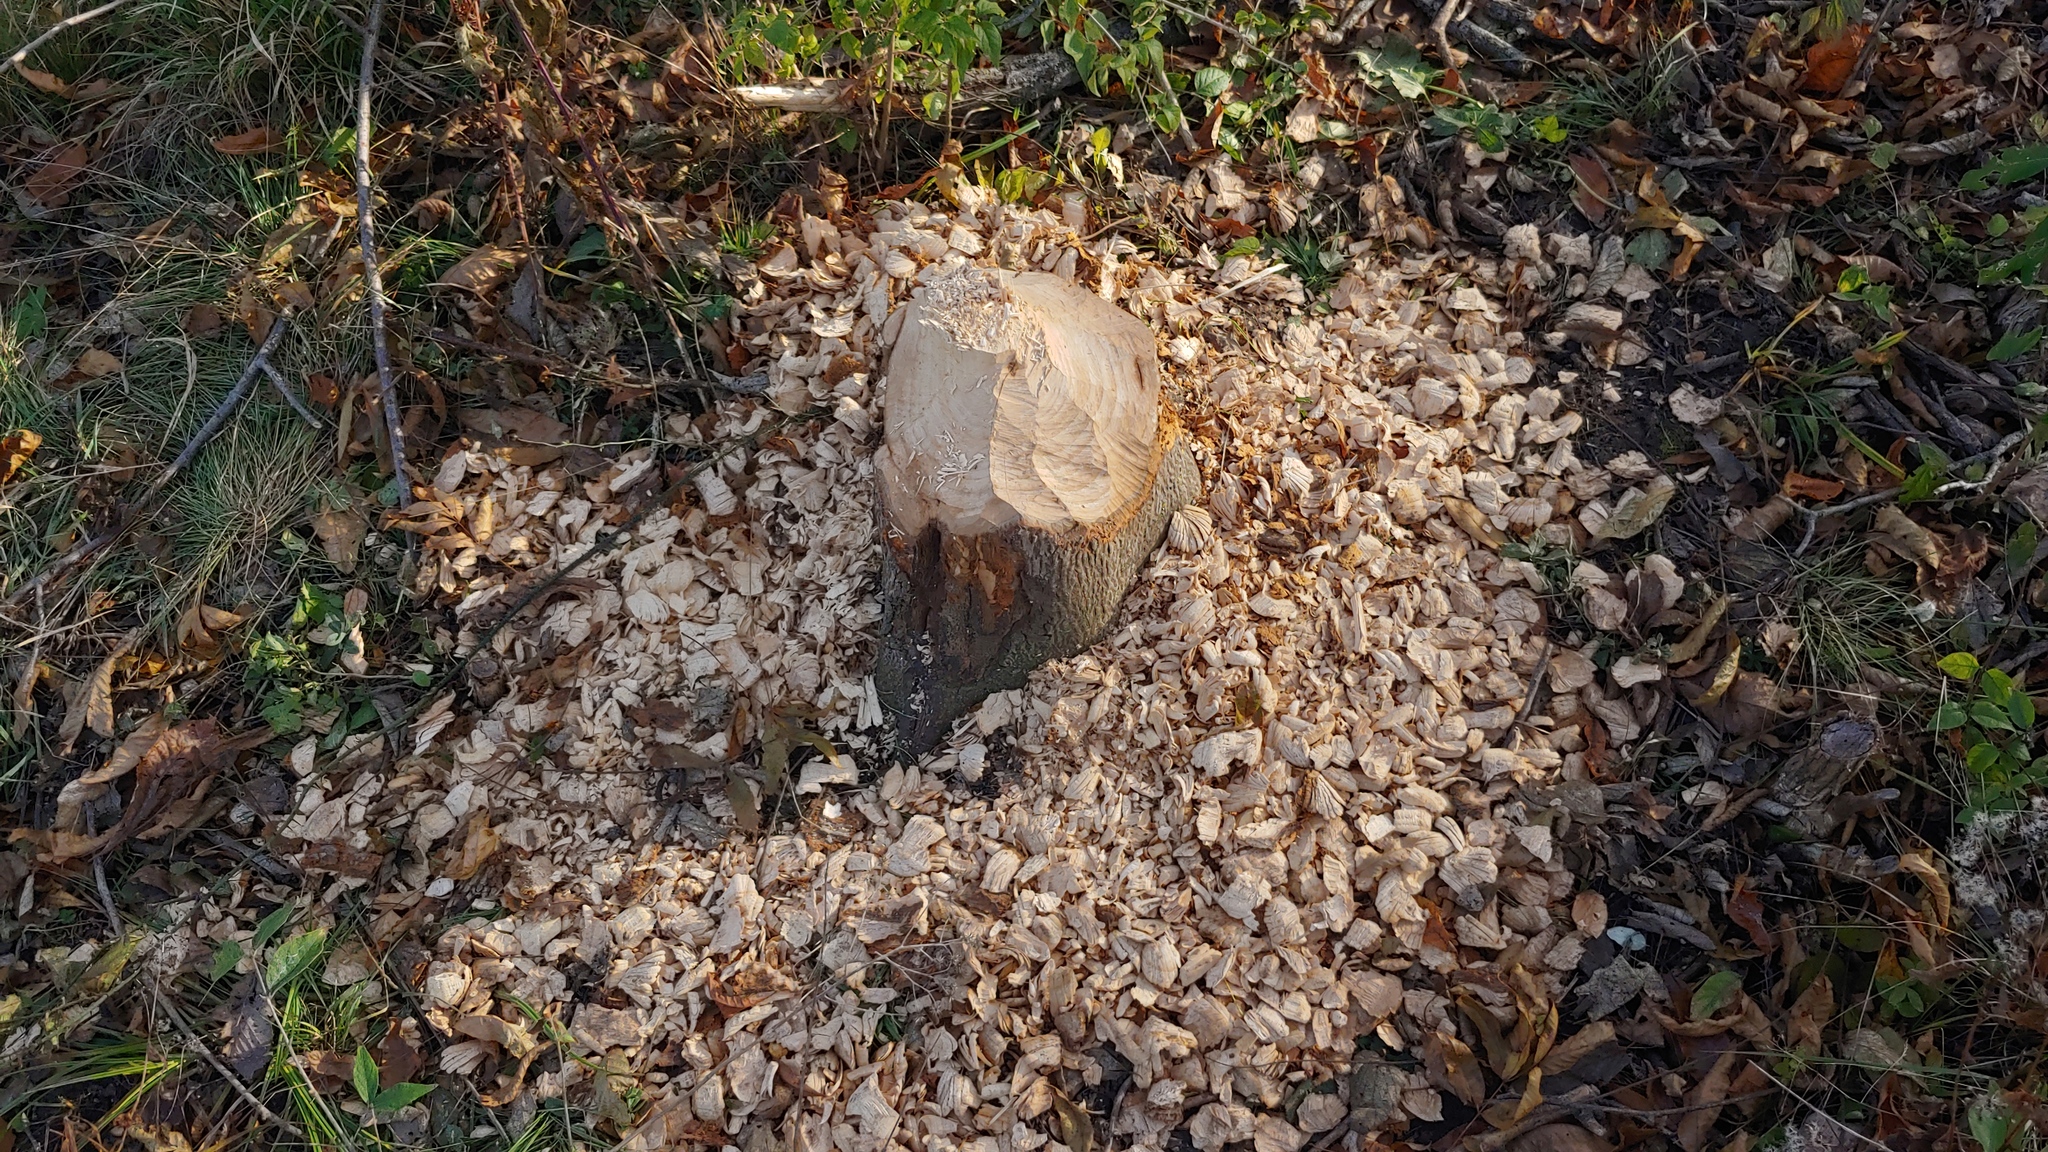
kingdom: Animalia
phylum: Chordata
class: Mammalia
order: Rodentia
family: Castoridae
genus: Castor
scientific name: Castor canadensis
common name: American beaver
